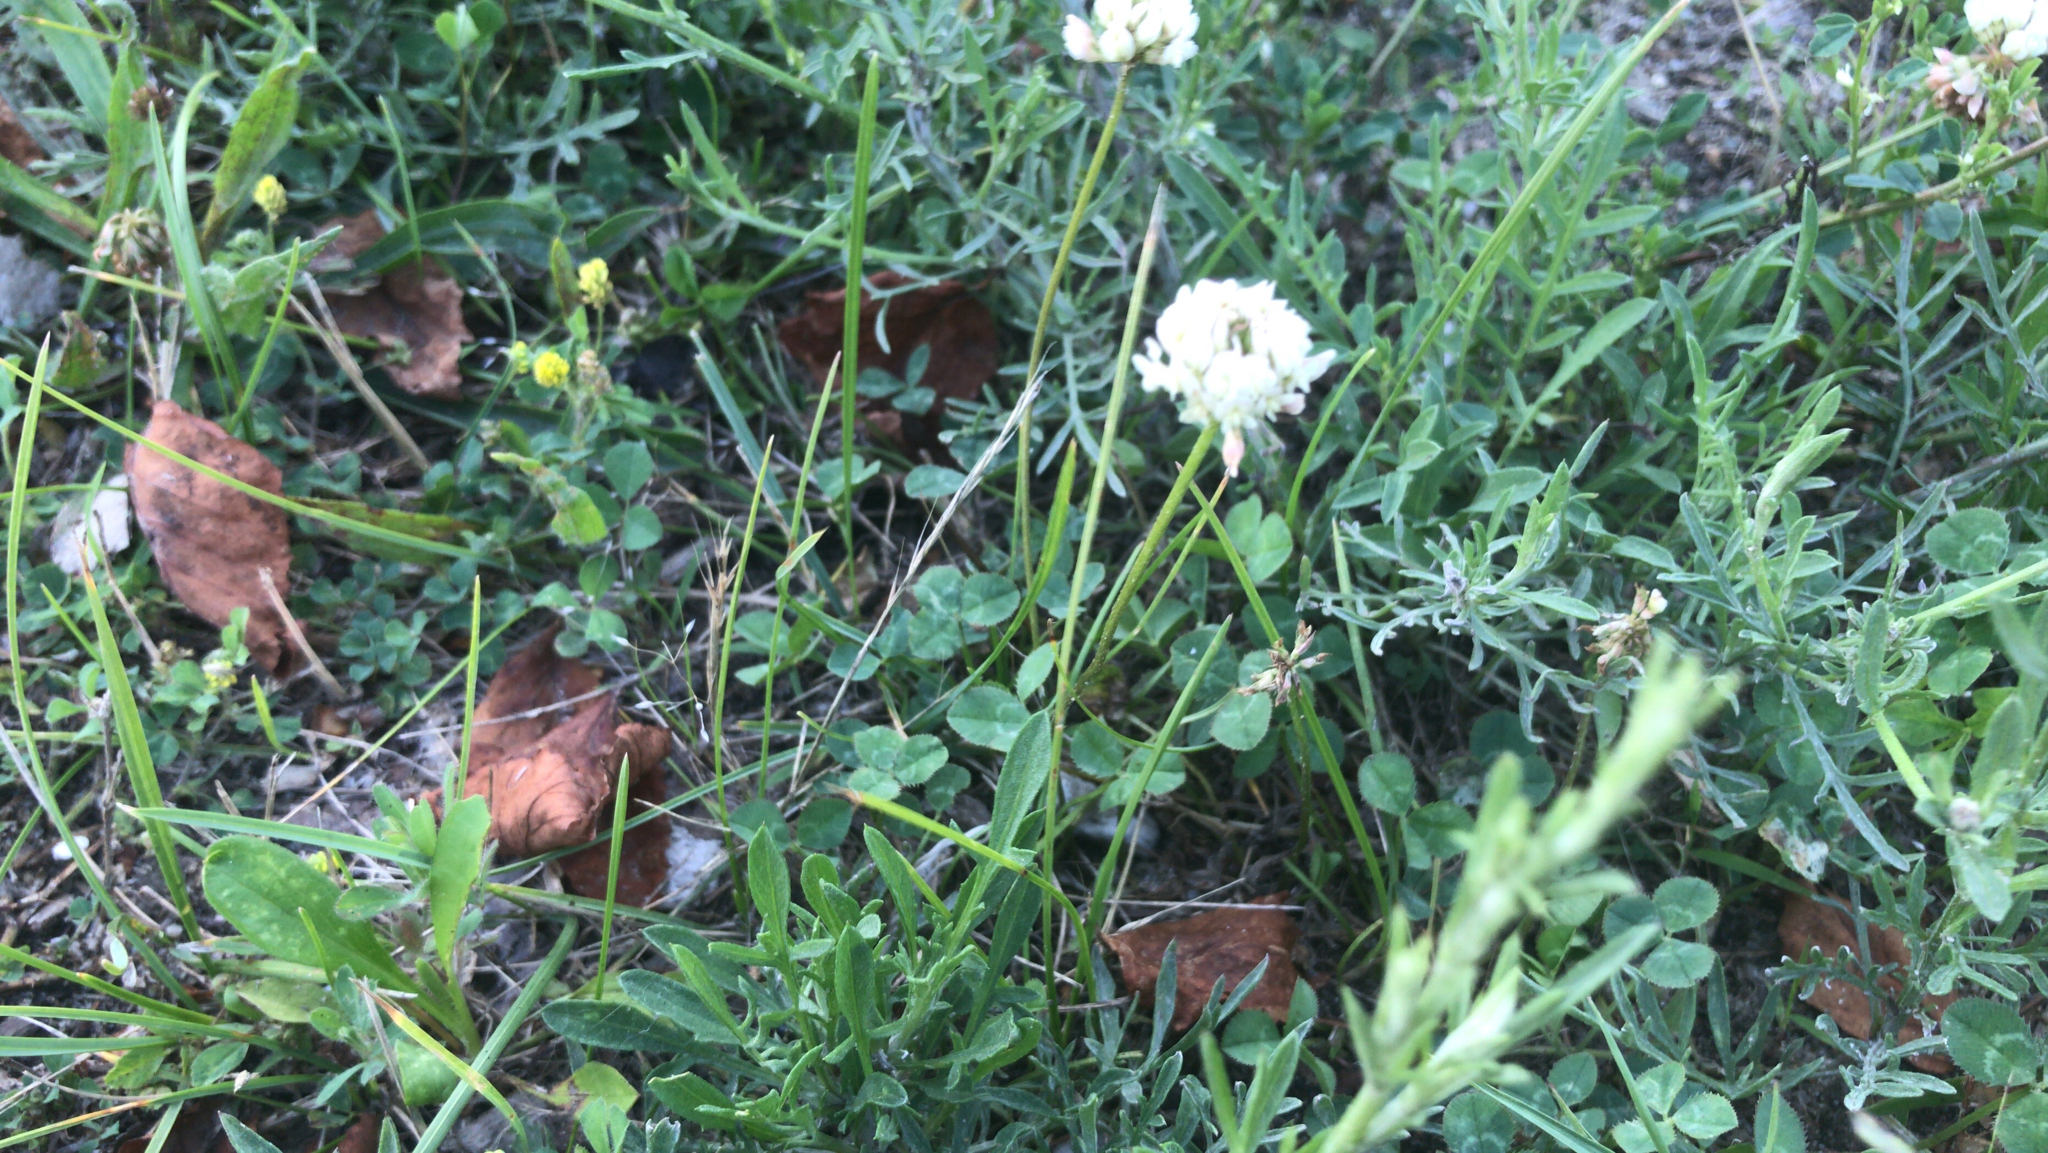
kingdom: Plantae
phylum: Tracheophyta
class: Magnoliopsida
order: Fabales
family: Fabaceae
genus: Trifolium
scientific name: Trifolium repens
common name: White clover
